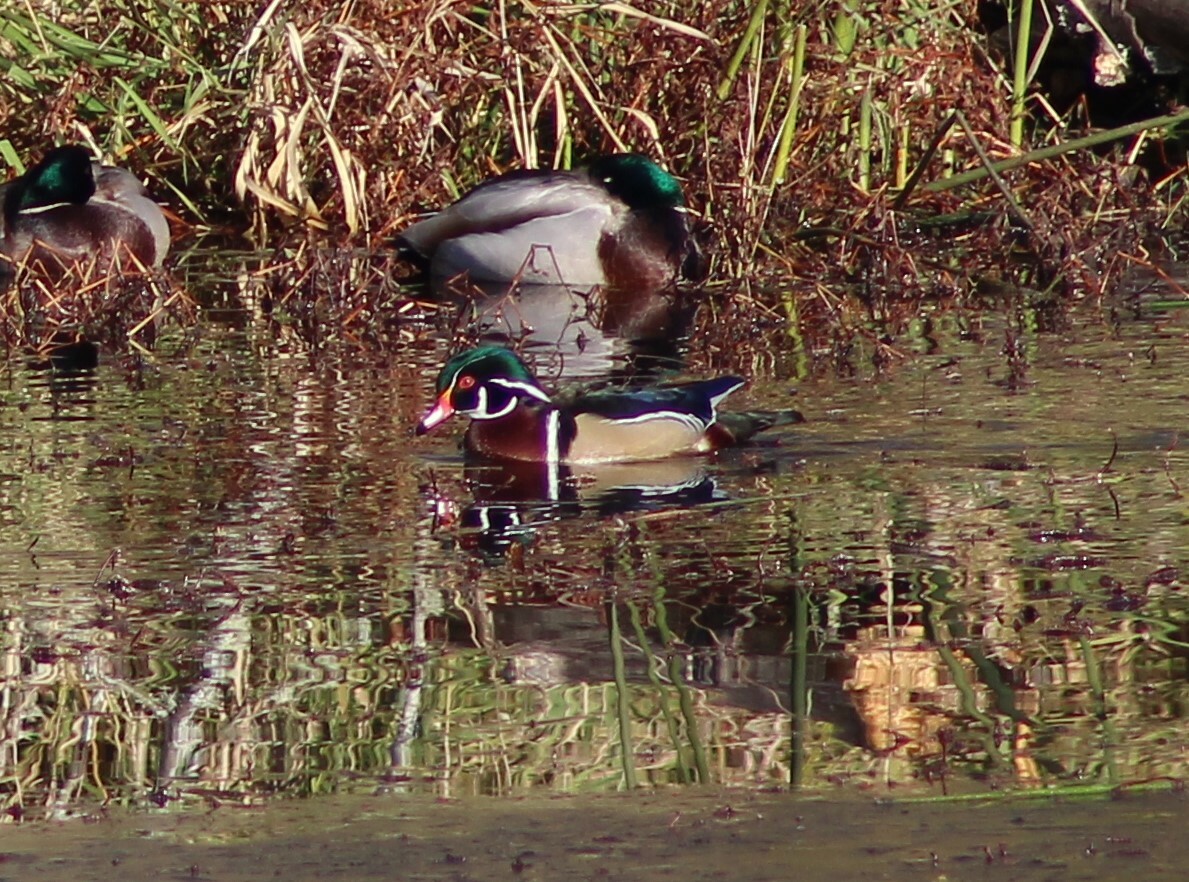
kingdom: Animalia
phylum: Chordata
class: Aves
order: Anseriformes
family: Anatidae
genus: Aix
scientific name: Aix sponsa
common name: Wood duck
